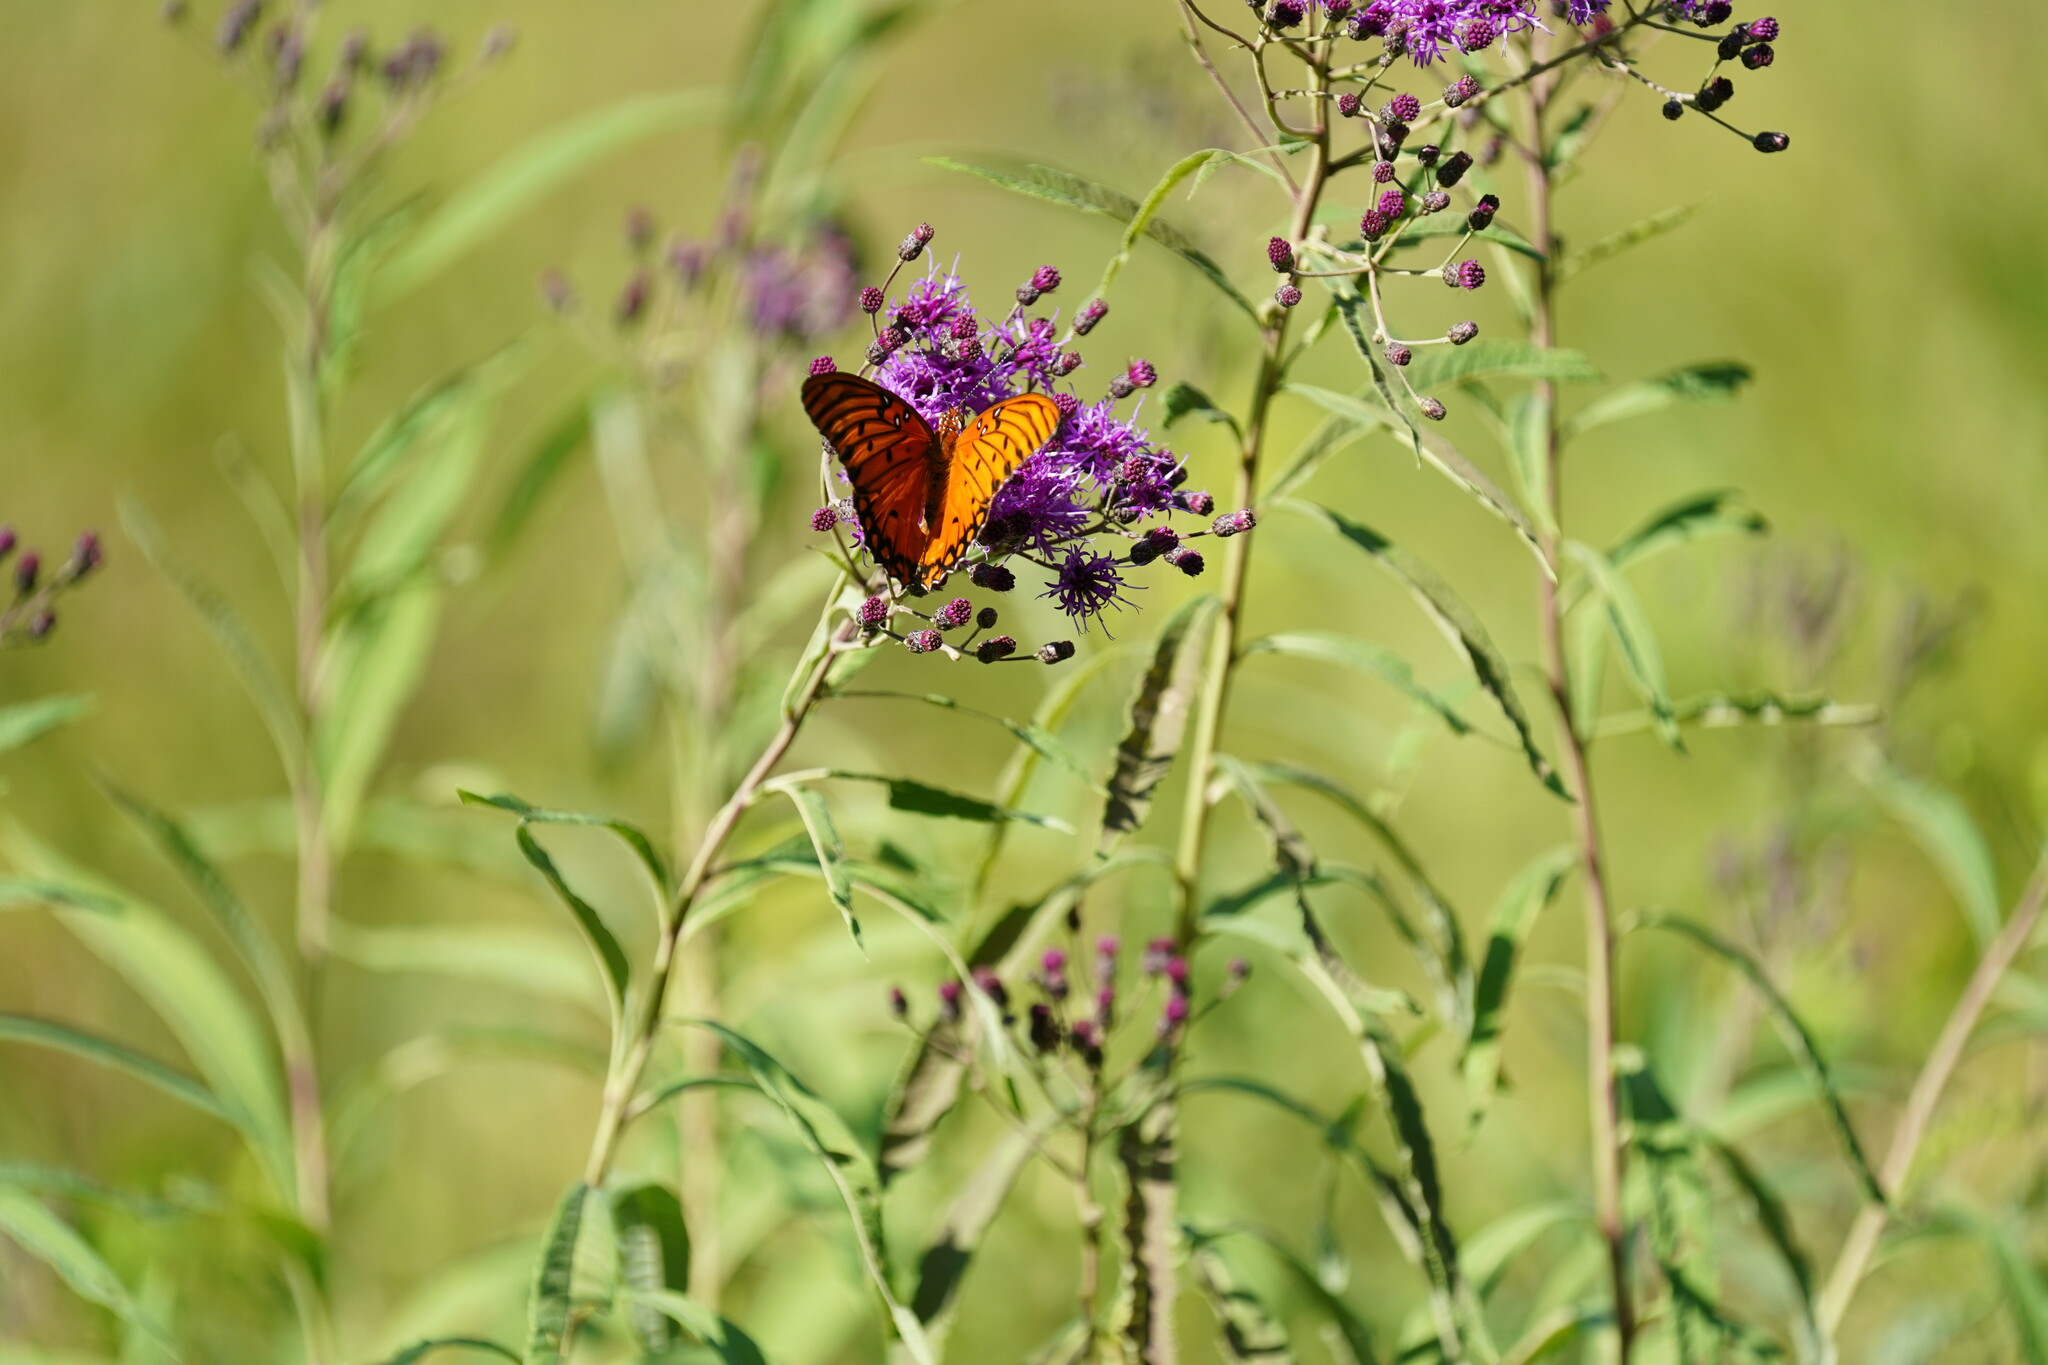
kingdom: Animalia
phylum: Arthropoda
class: Insecta
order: Lepidoptera
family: Nymphalidae
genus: Dione
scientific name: Dione vanillae
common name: Gulf fritillary
